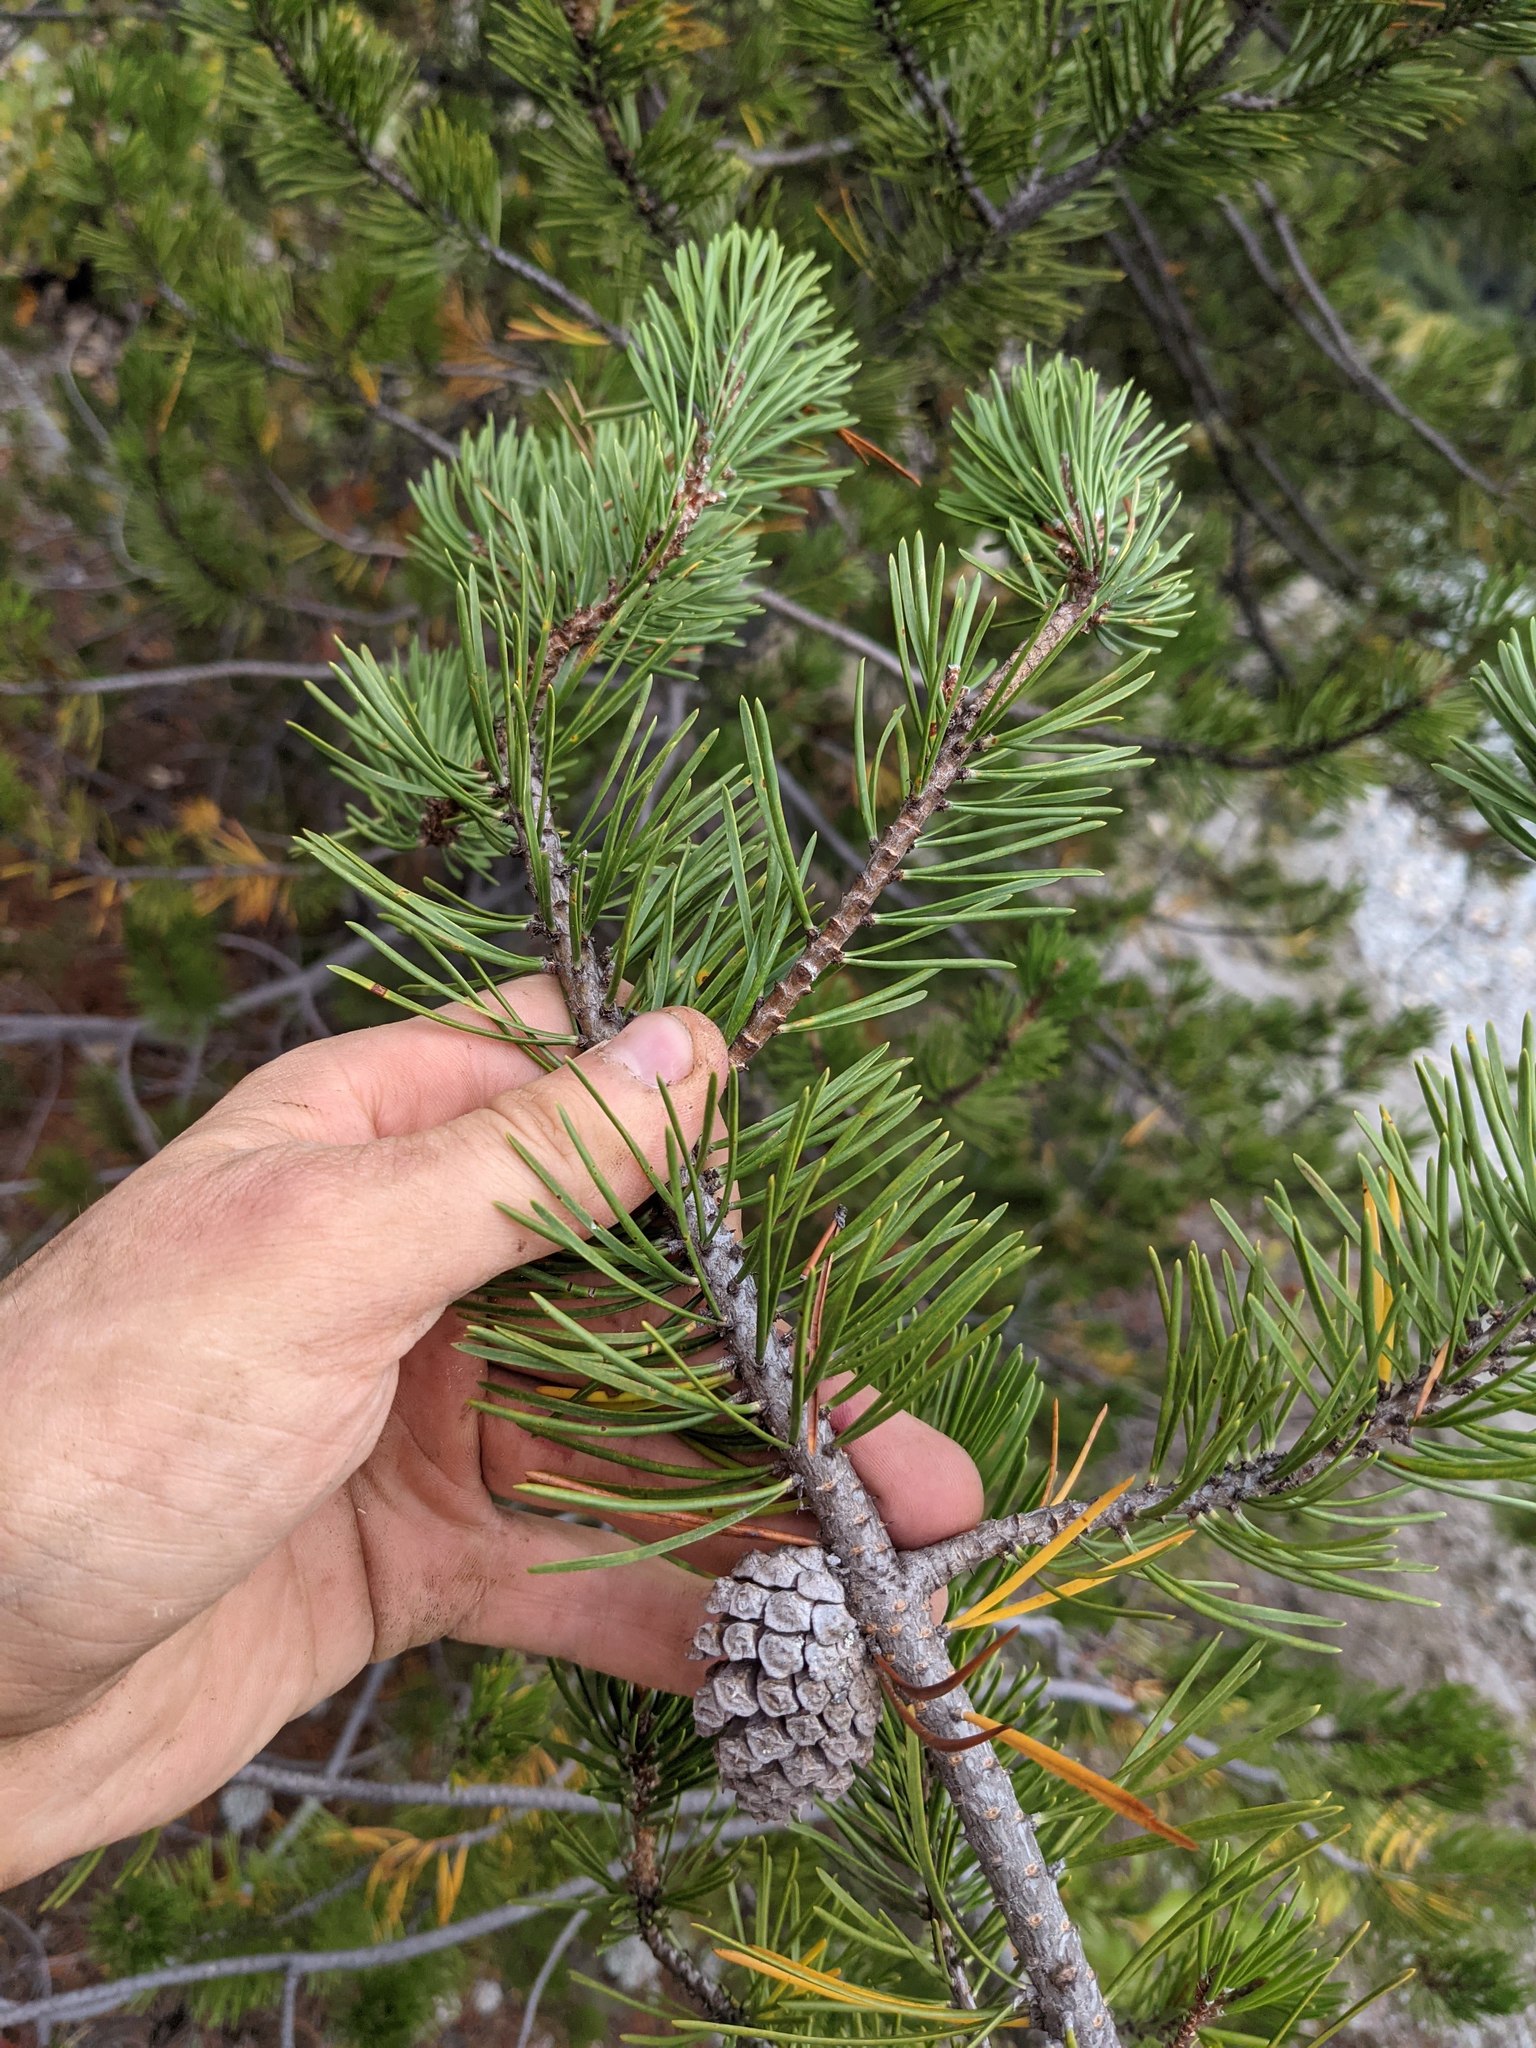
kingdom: Plantae
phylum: Tracheophyta
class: Pinopsida
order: Pinales
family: Pinaceae
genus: Pinus
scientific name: Pinus contorta
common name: Lodgepole pine
